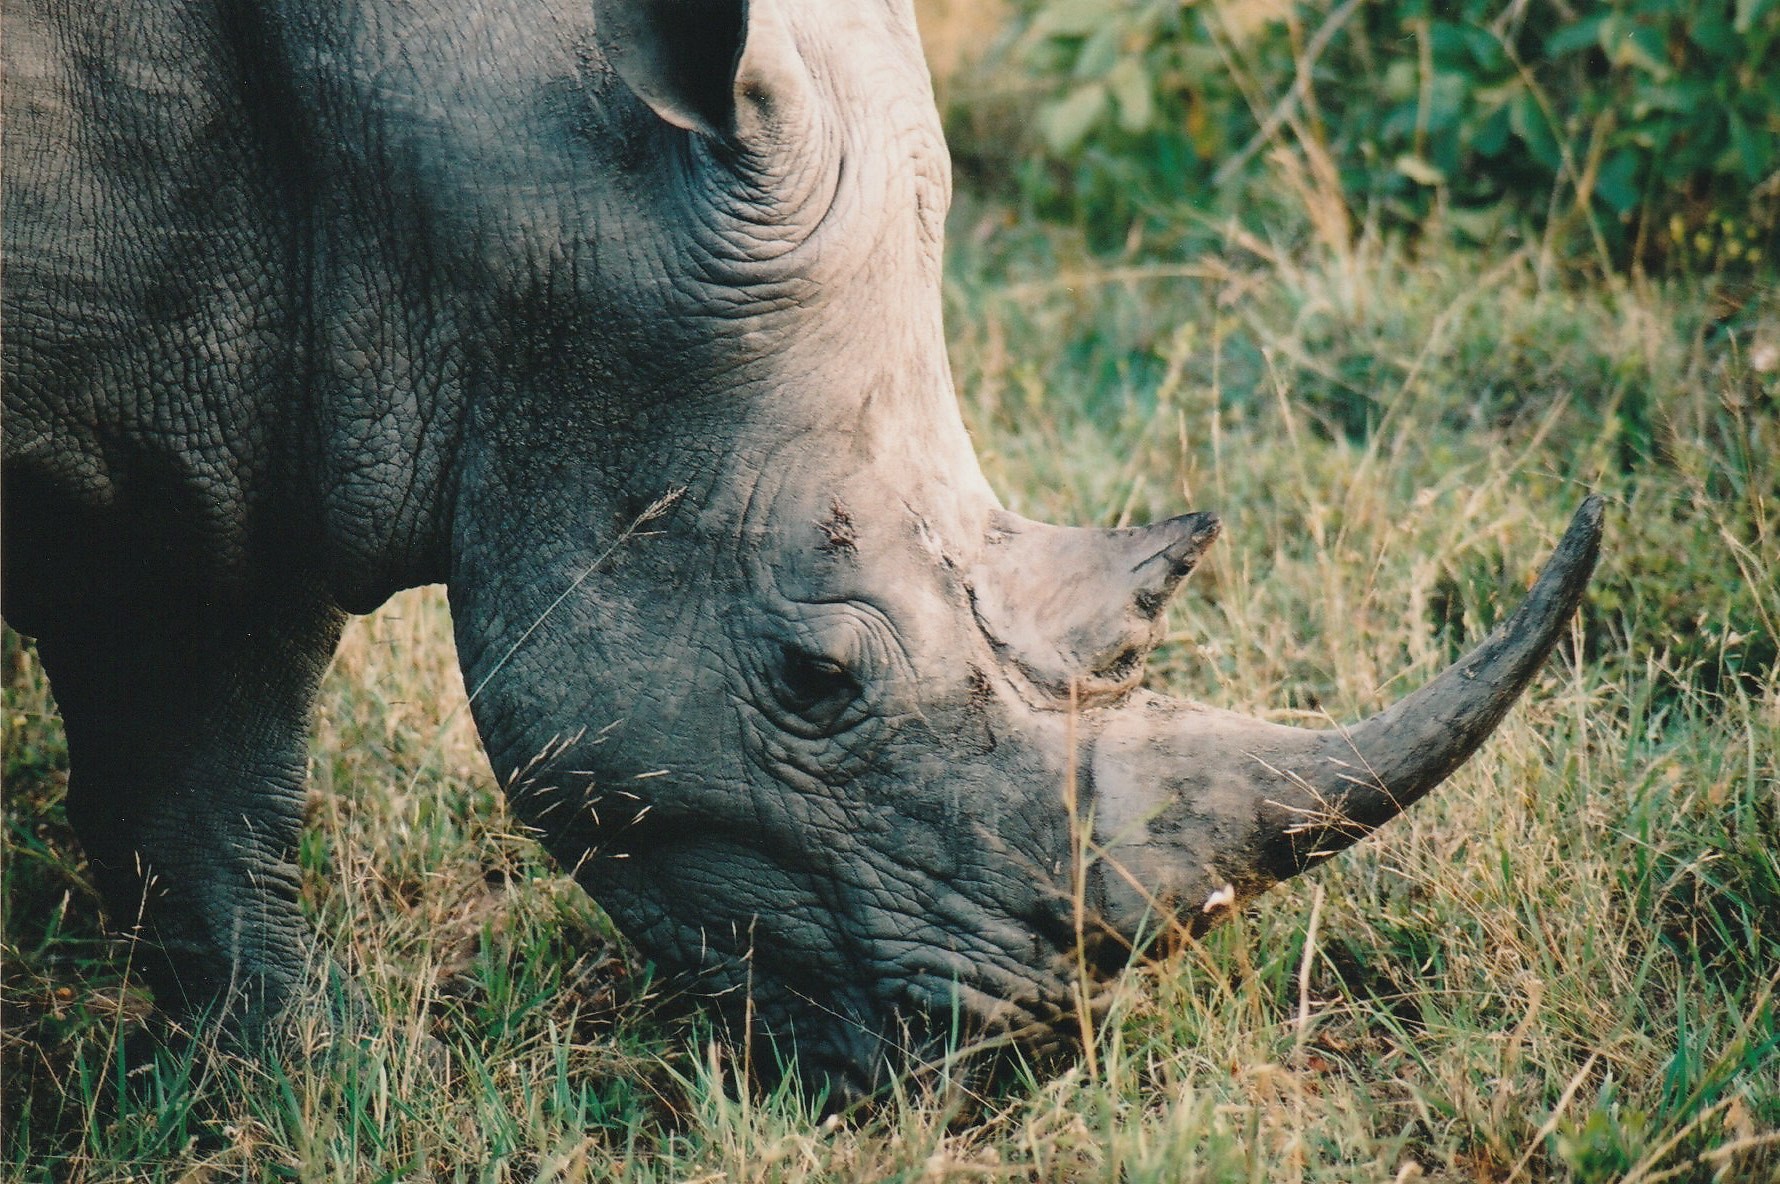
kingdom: Animalia
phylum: Chordata
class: Mammalia
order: Perissodactyla
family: Rhinocerotidae
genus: Ceratotherium
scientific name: Ceratotherium simum
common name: White rhinoceros
